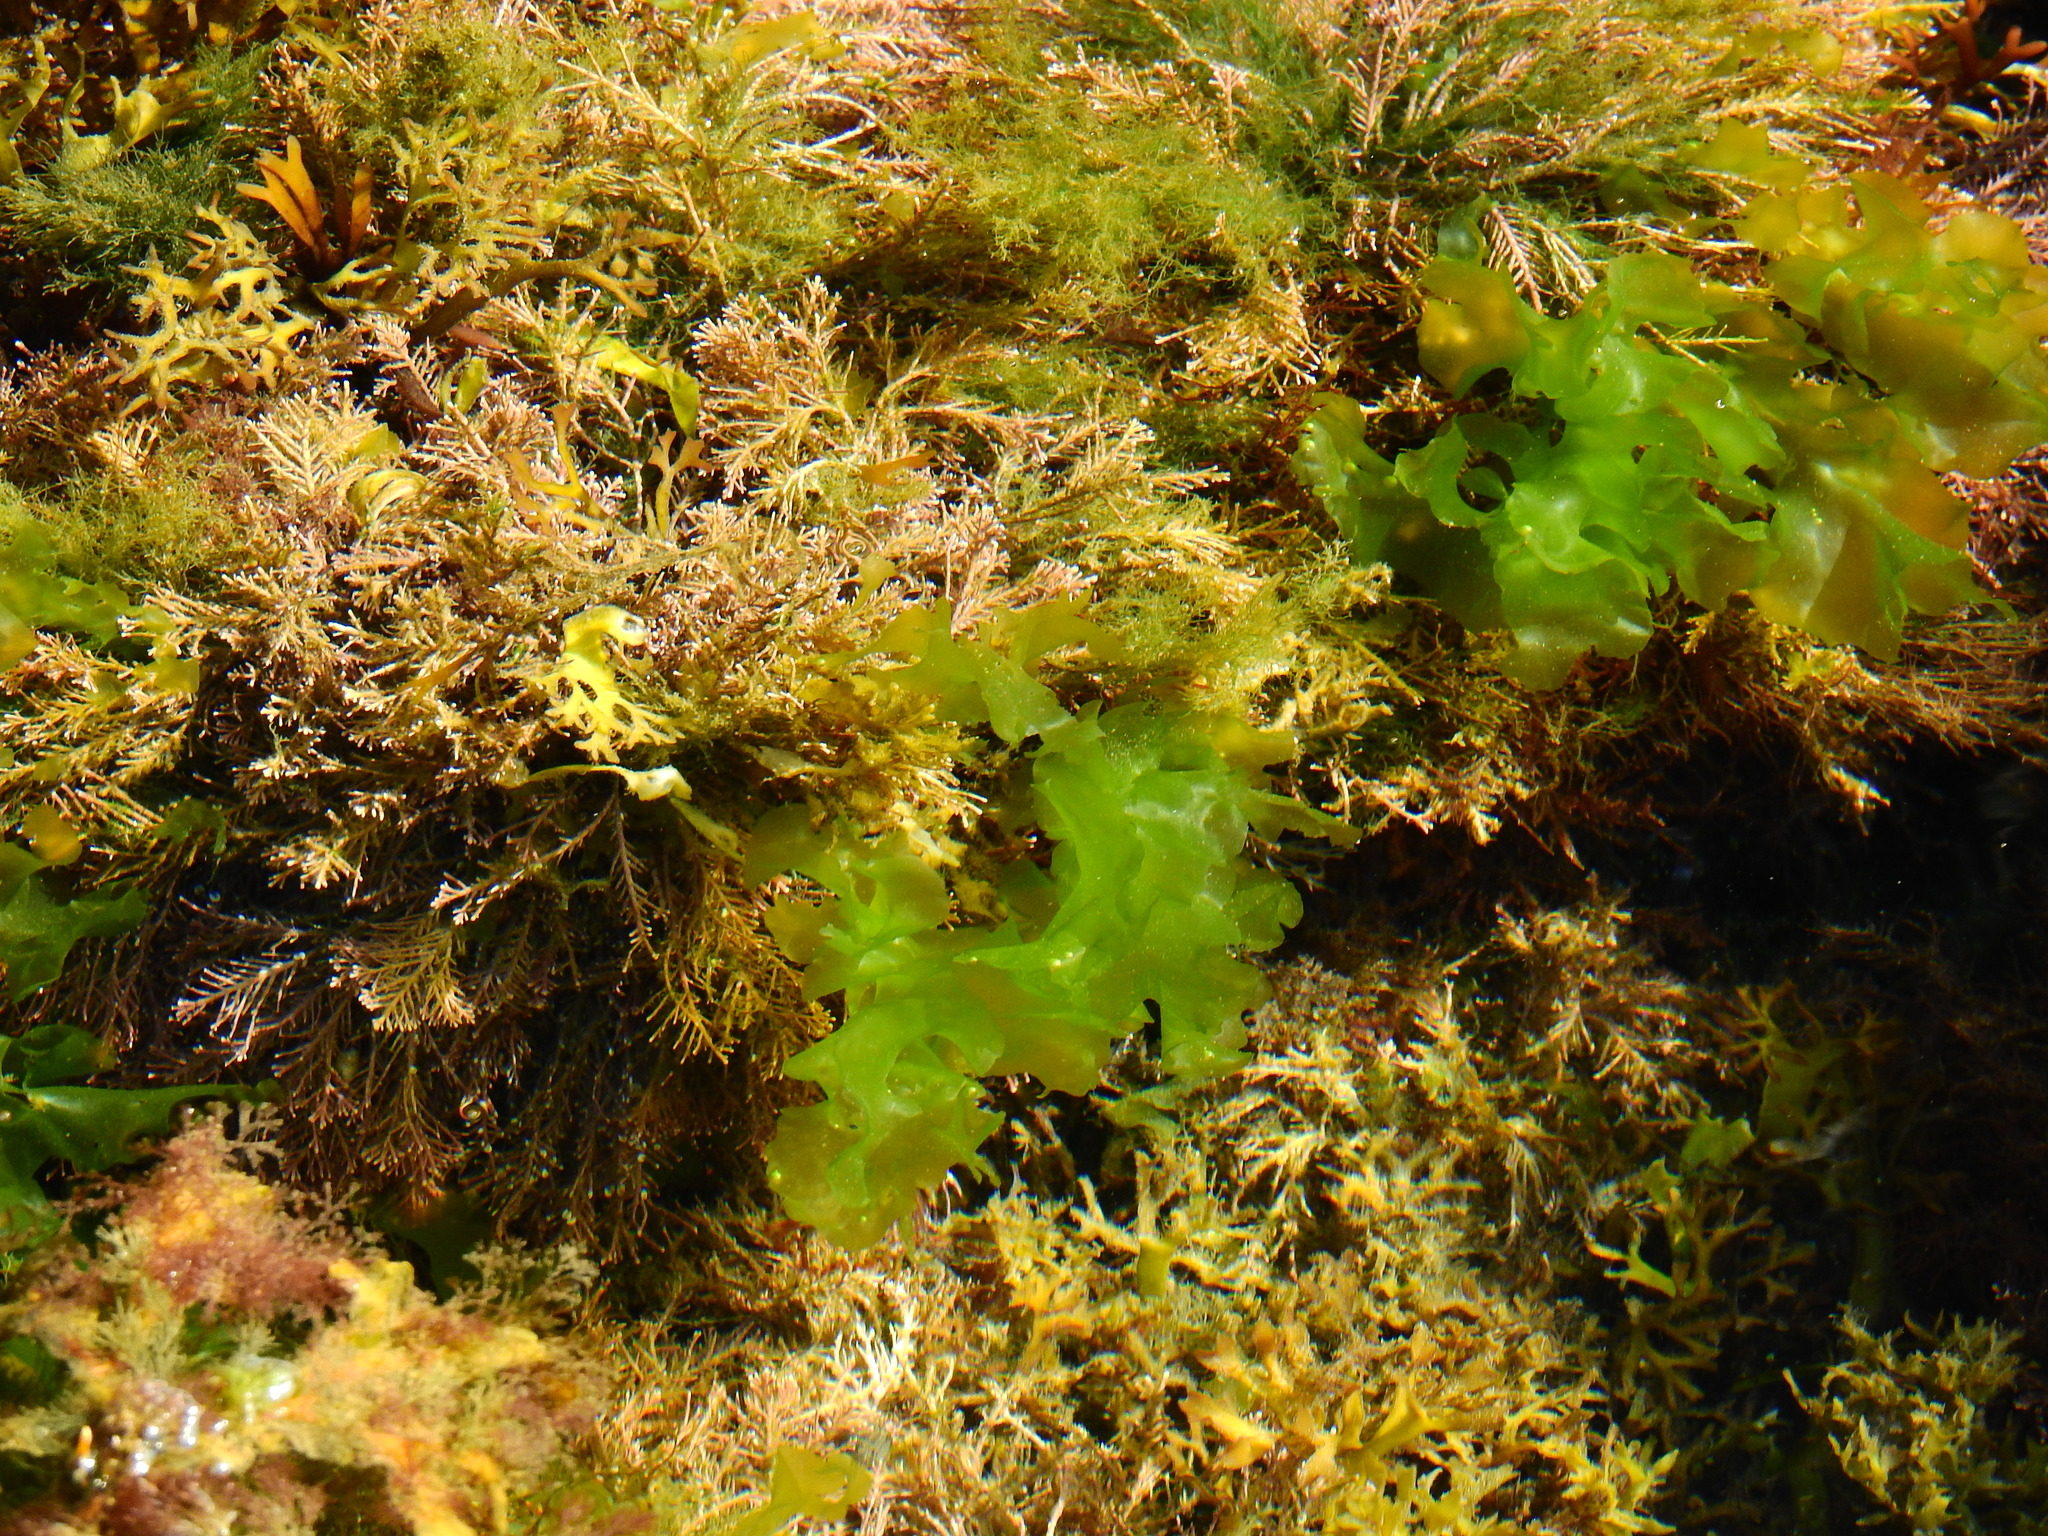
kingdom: Plantae
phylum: Chlorophyta
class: Ulvophyceae
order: Ulvales
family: Ulvaceae
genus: Ulva
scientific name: Ulva lactuca
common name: Sea lettuce
